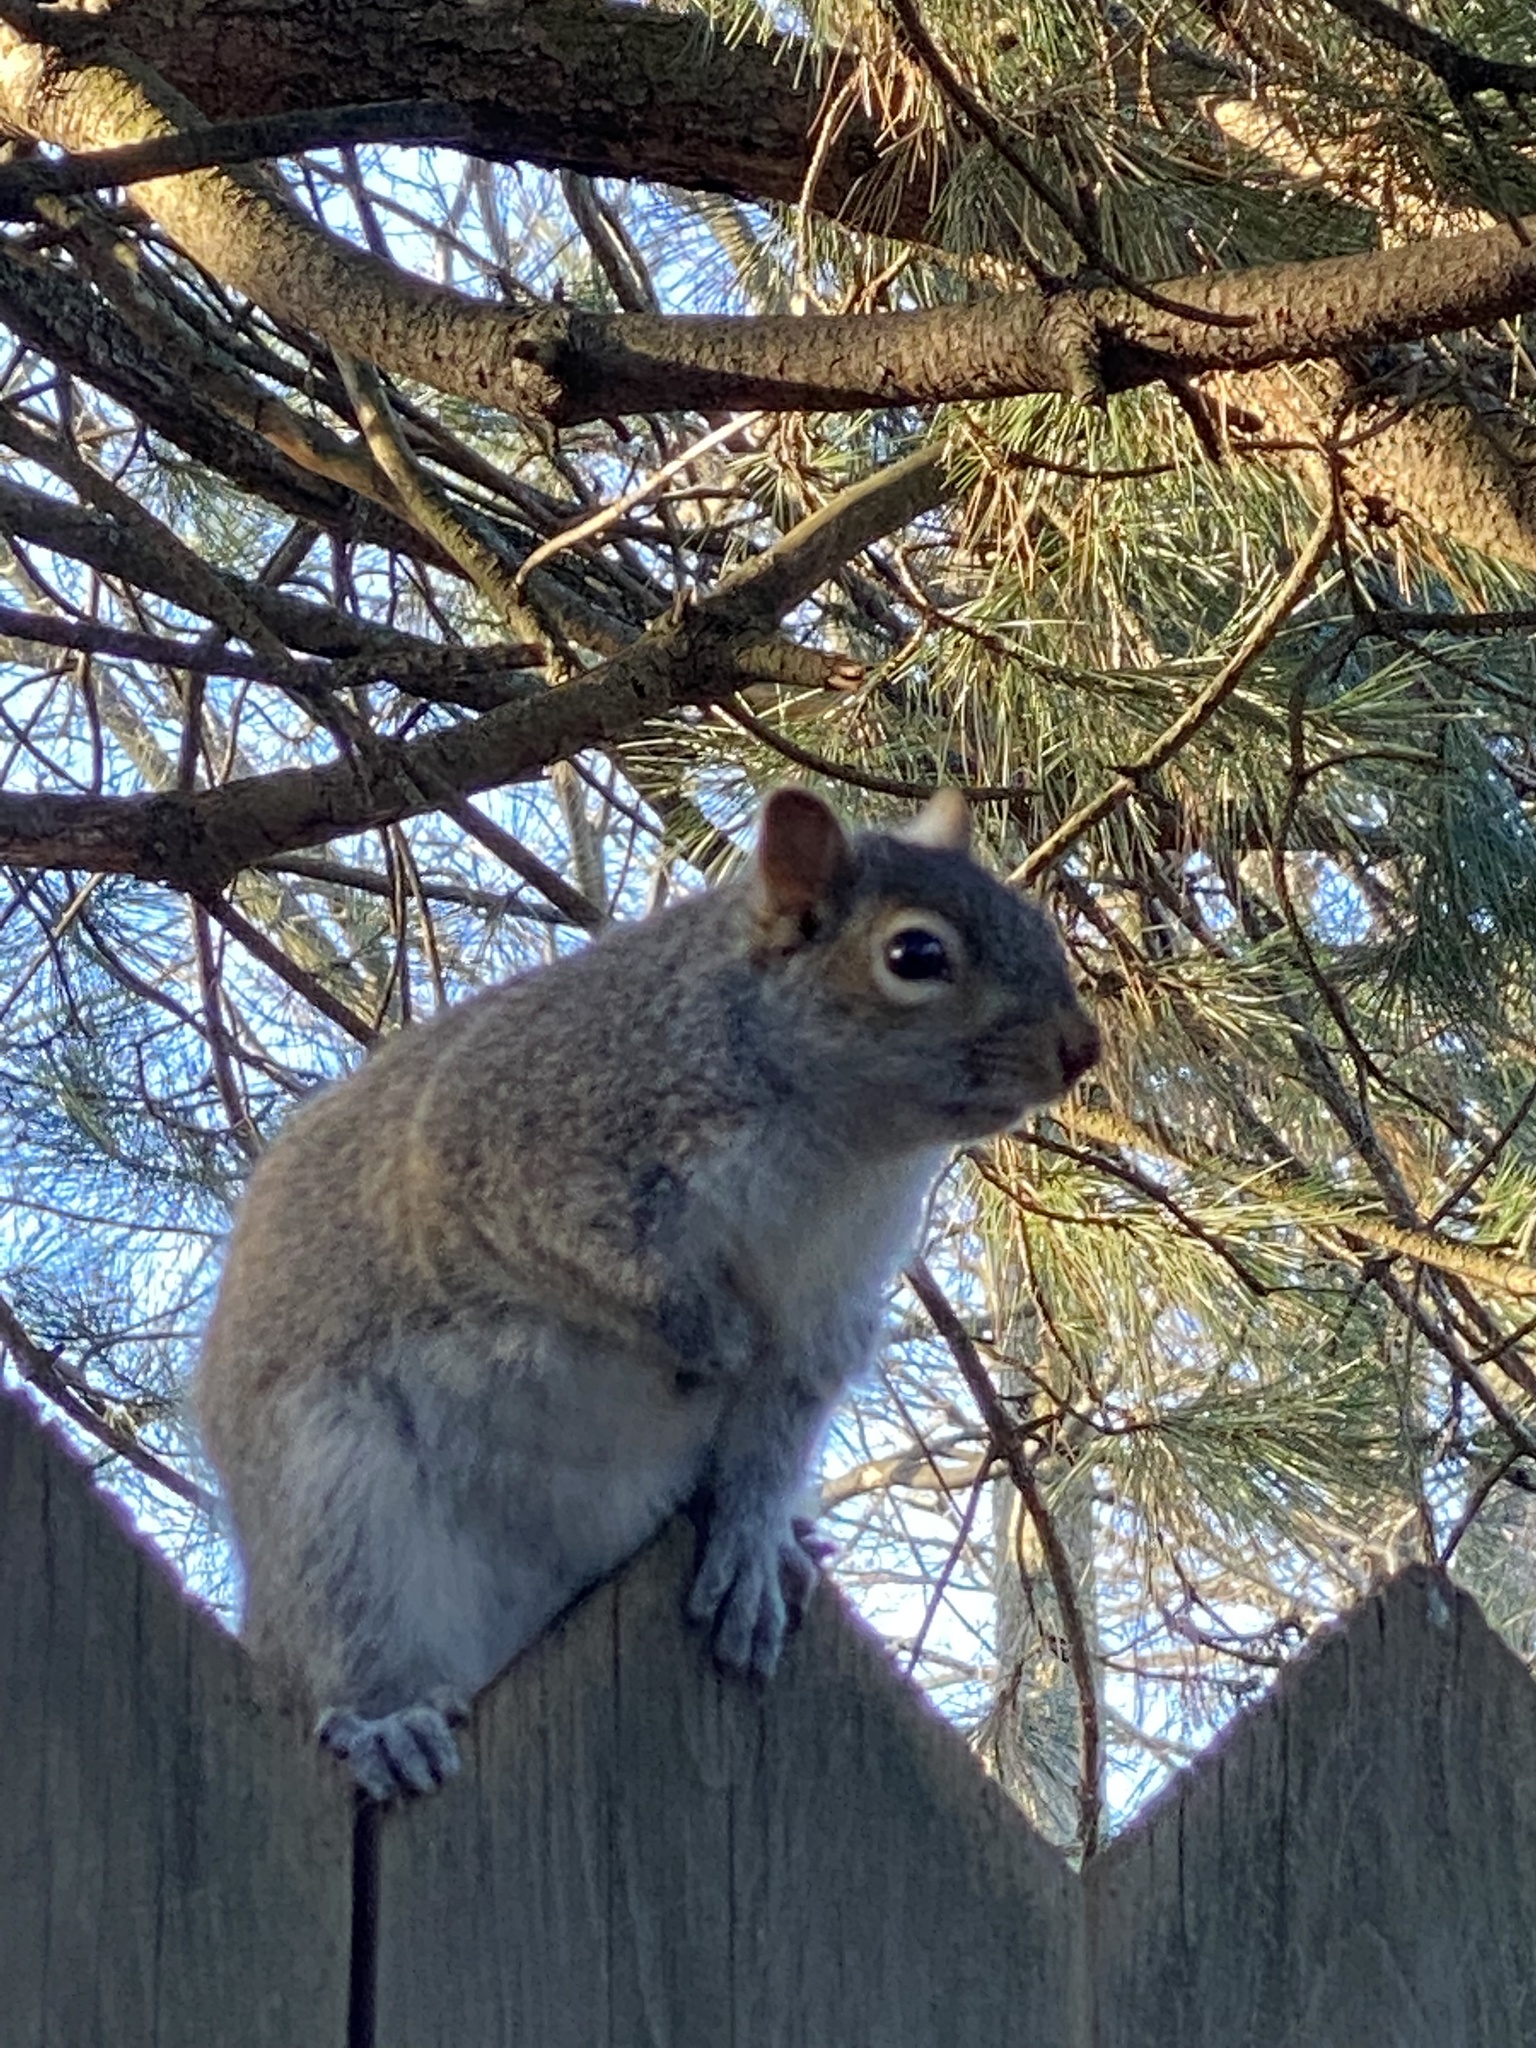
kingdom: Animalia
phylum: Chordata
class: Mammalia
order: Rodentia
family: Sciuridae
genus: Sciurus
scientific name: Sciurus carolinensis
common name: Eastern gray squirrel
